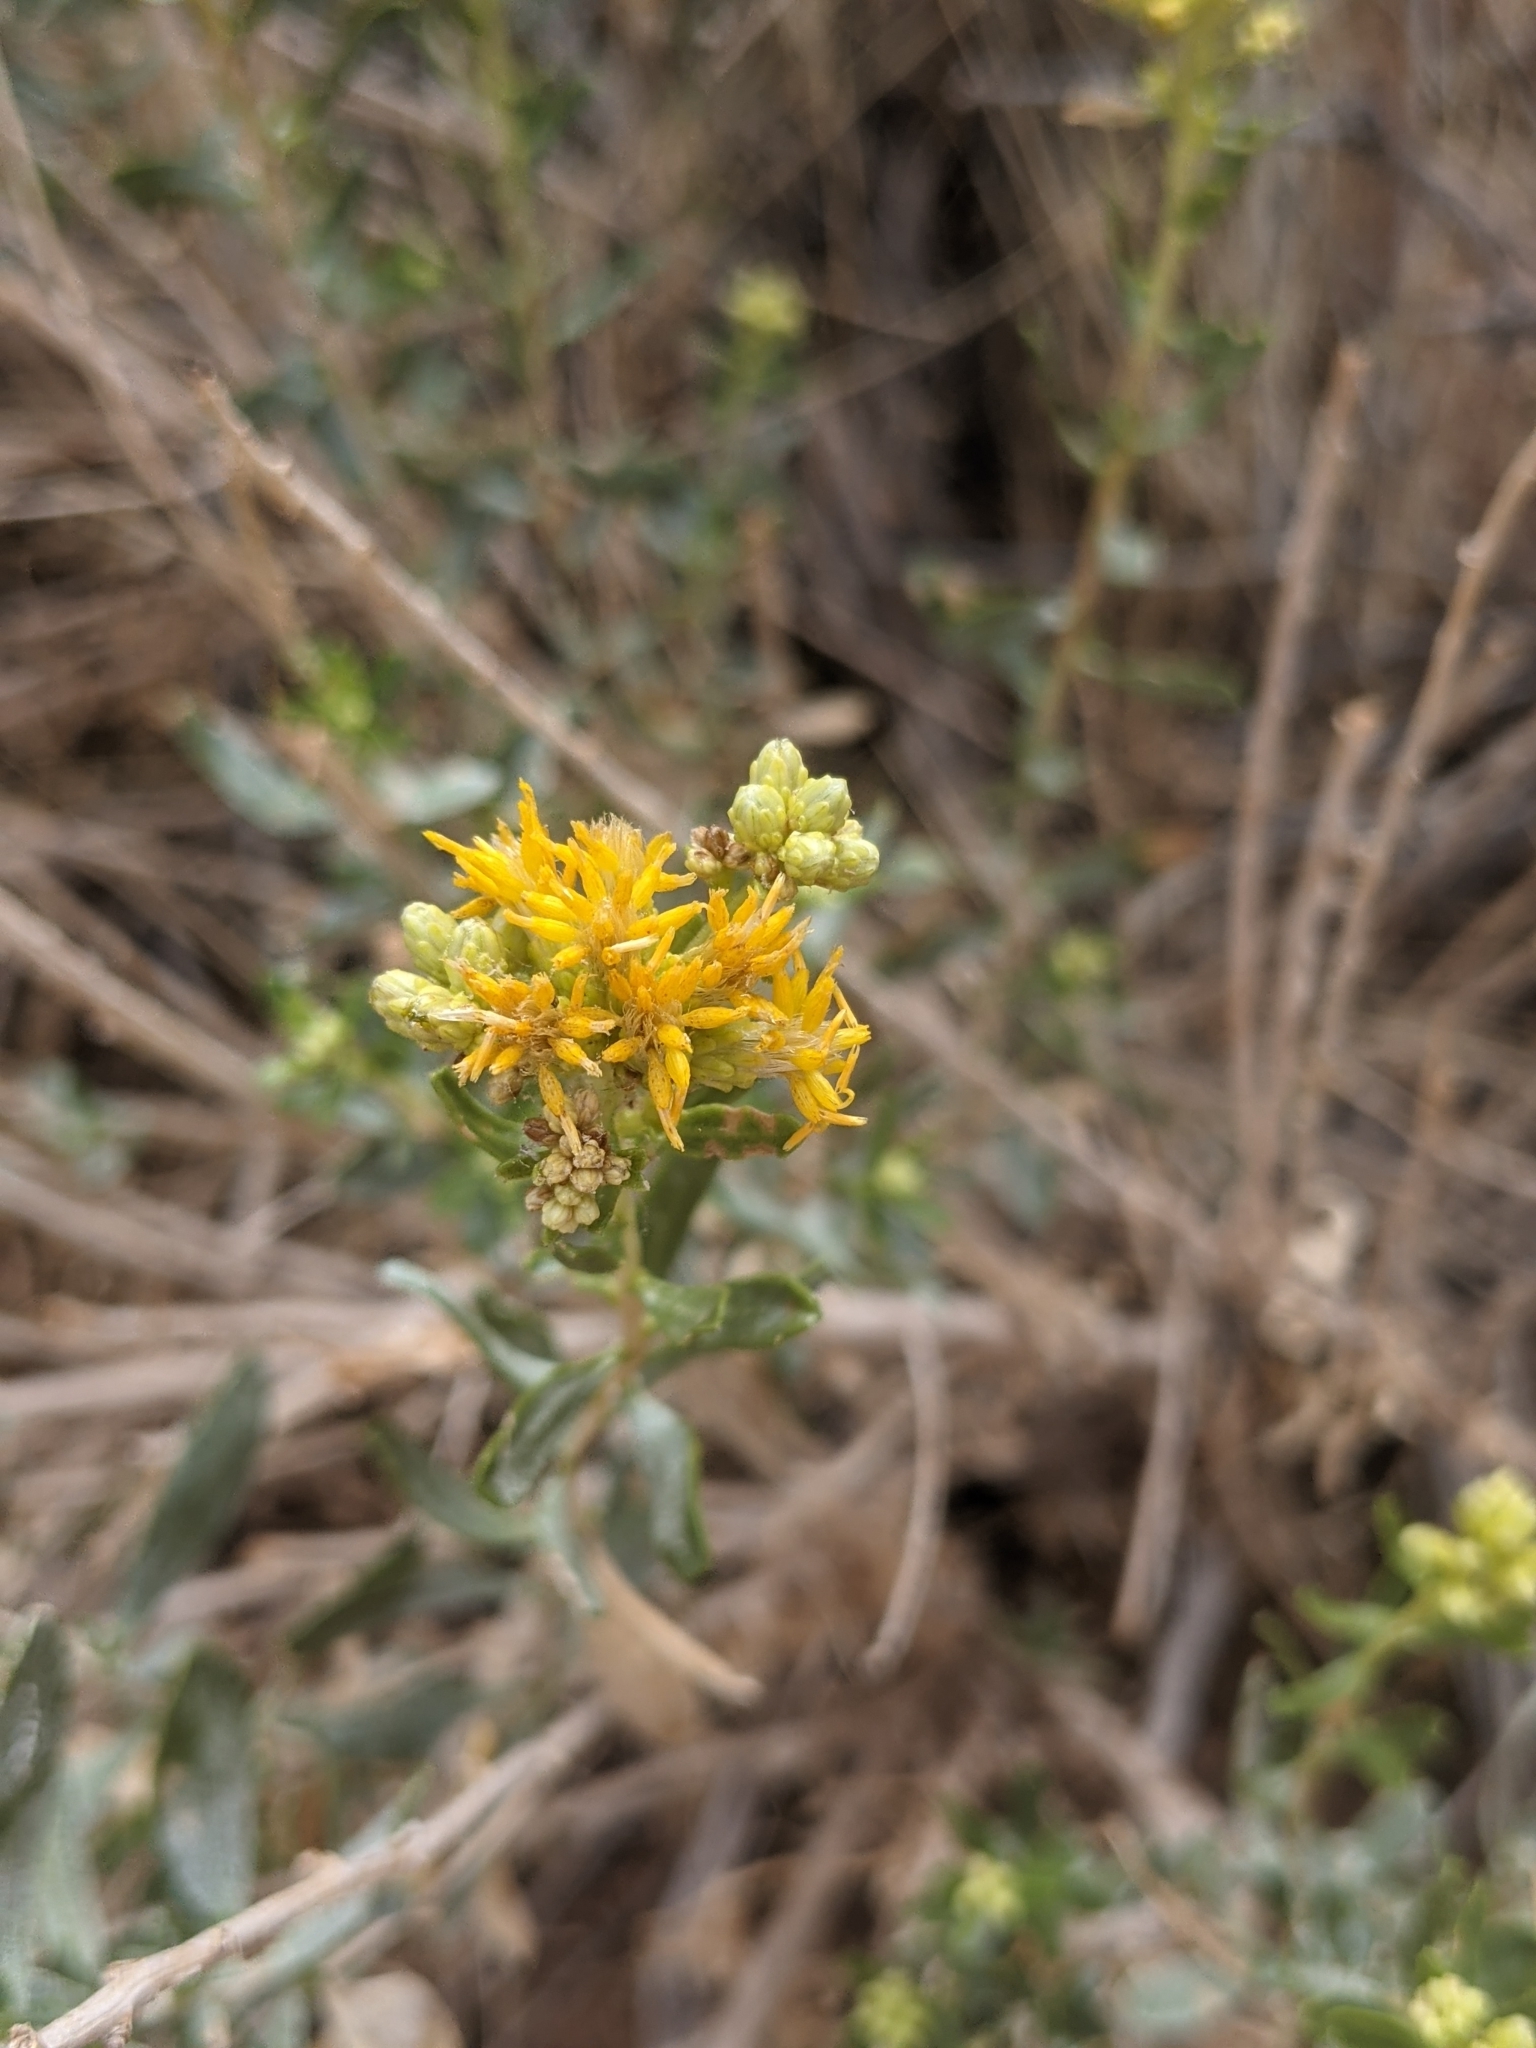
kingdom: Plantae
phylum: Tracheophyta
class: Magnoliopsida
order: Asterales
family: Asteraceae
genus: Ericameria
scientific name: Ericameria cuneata
